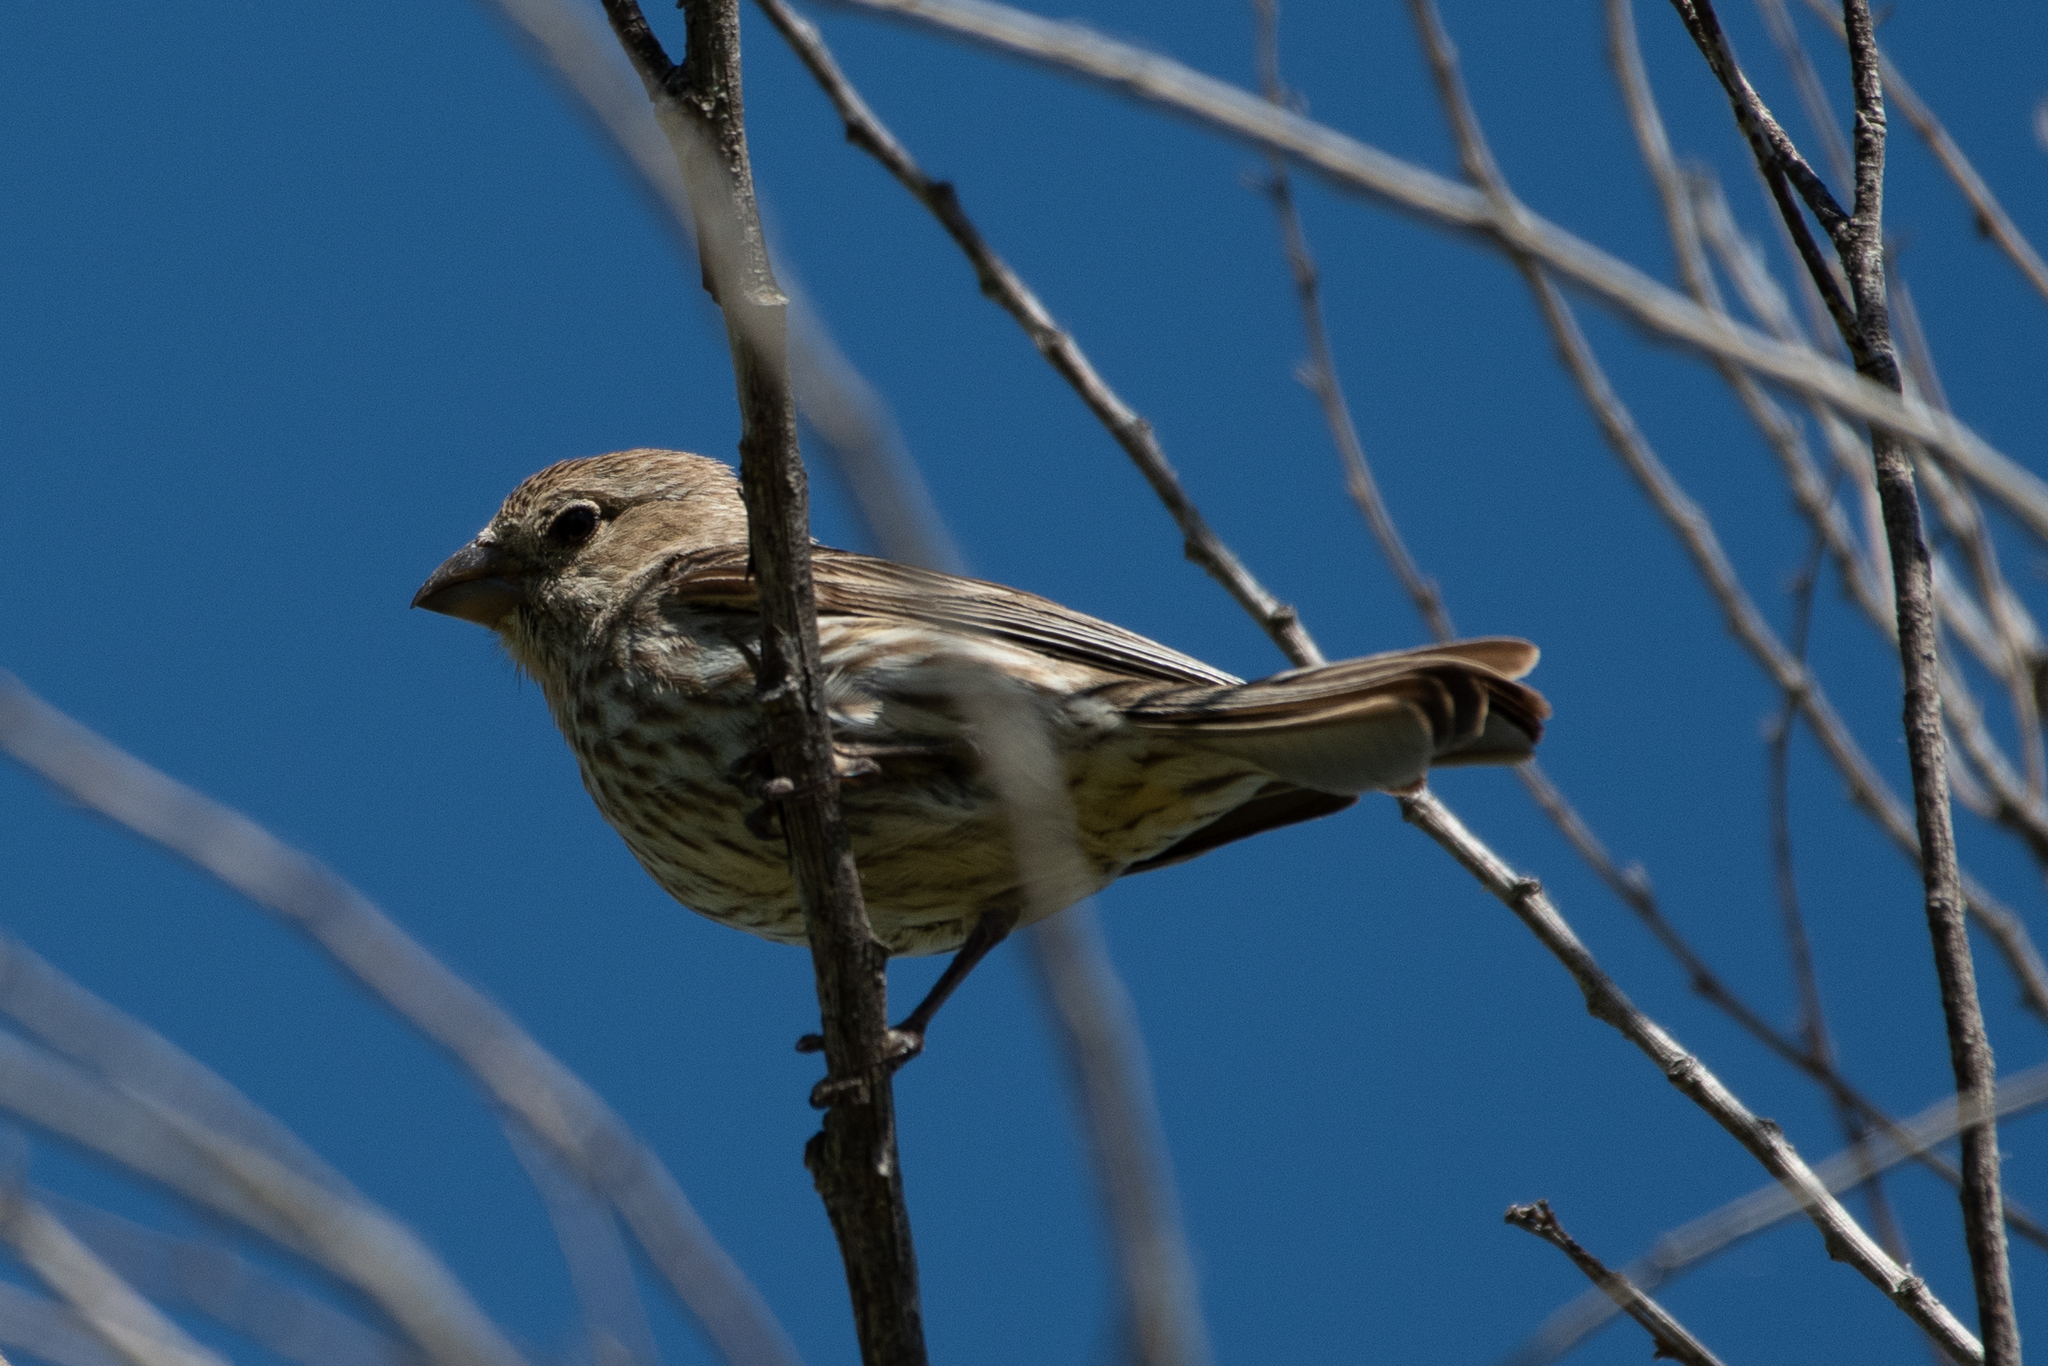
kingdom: Animalia
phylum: Chordata
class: Aves
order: Passeriformes
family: Fringillidae
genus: Haemorhous
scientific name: Haemorhous mexicanus
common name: House finch
